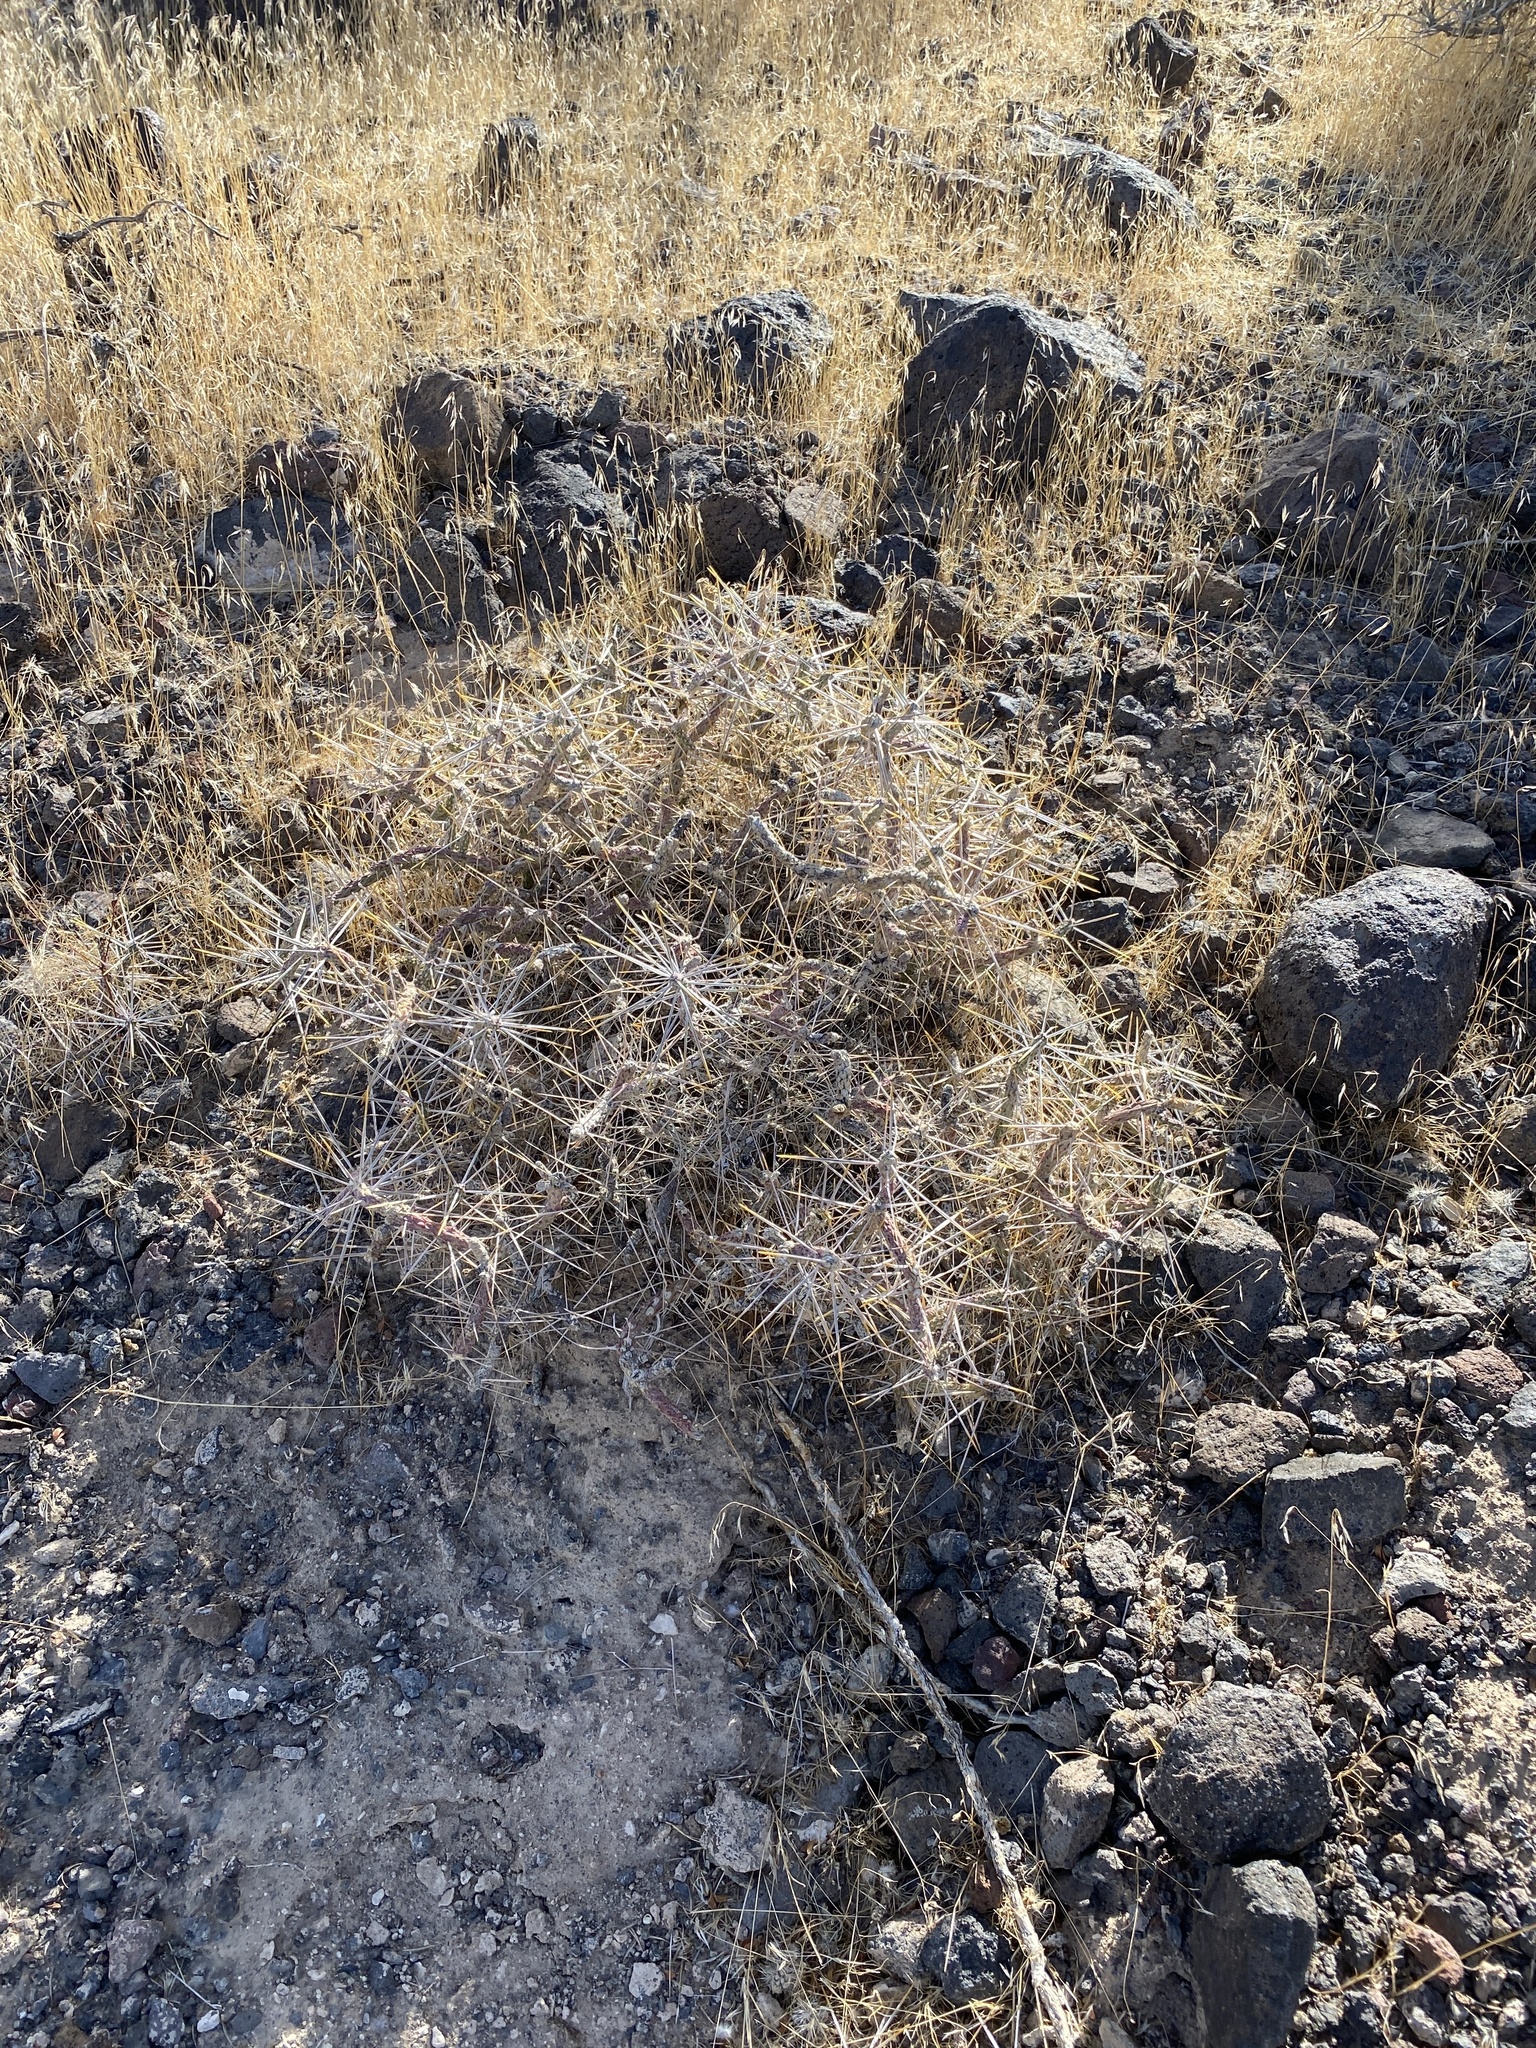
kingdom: Plantae
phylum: Tracheophyta
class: Magnoliopsida
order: Caryophyllales
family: Cactaceae
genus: Cylindropuntia
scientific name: Cylindropuntia ramosissima
